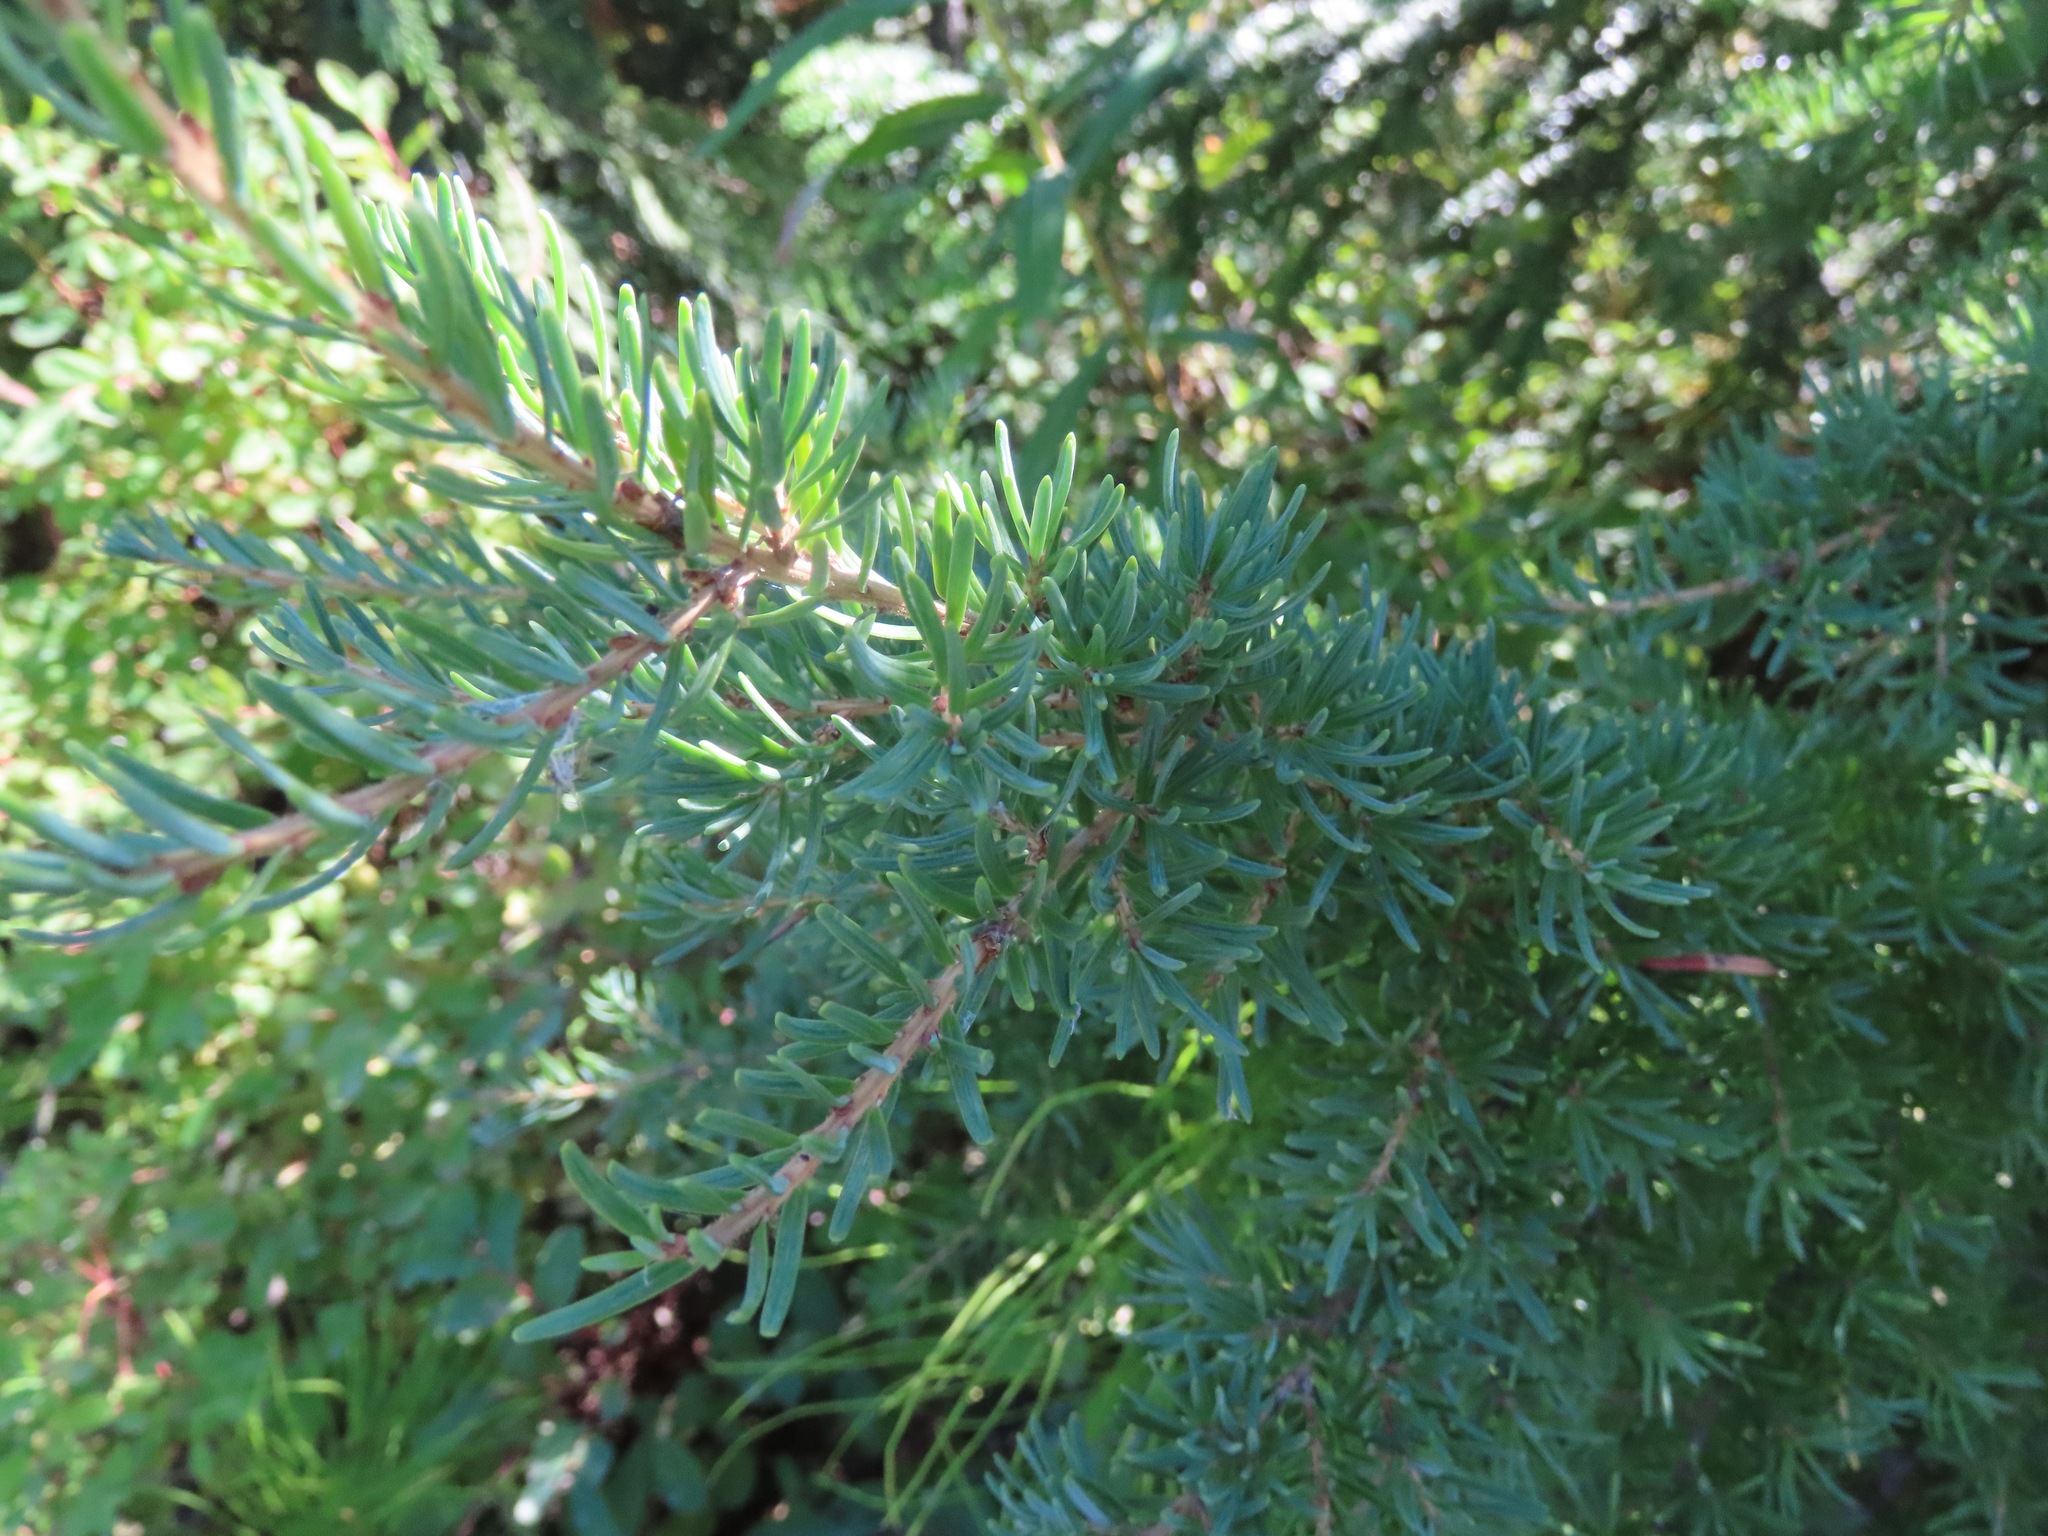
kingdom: Plantae
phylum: Tracheophyta
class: Pinopsida
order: Pinales
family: Pinaceae
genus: Tsuga
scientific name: Tsuga mertensiana
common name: Mountain hemlock
